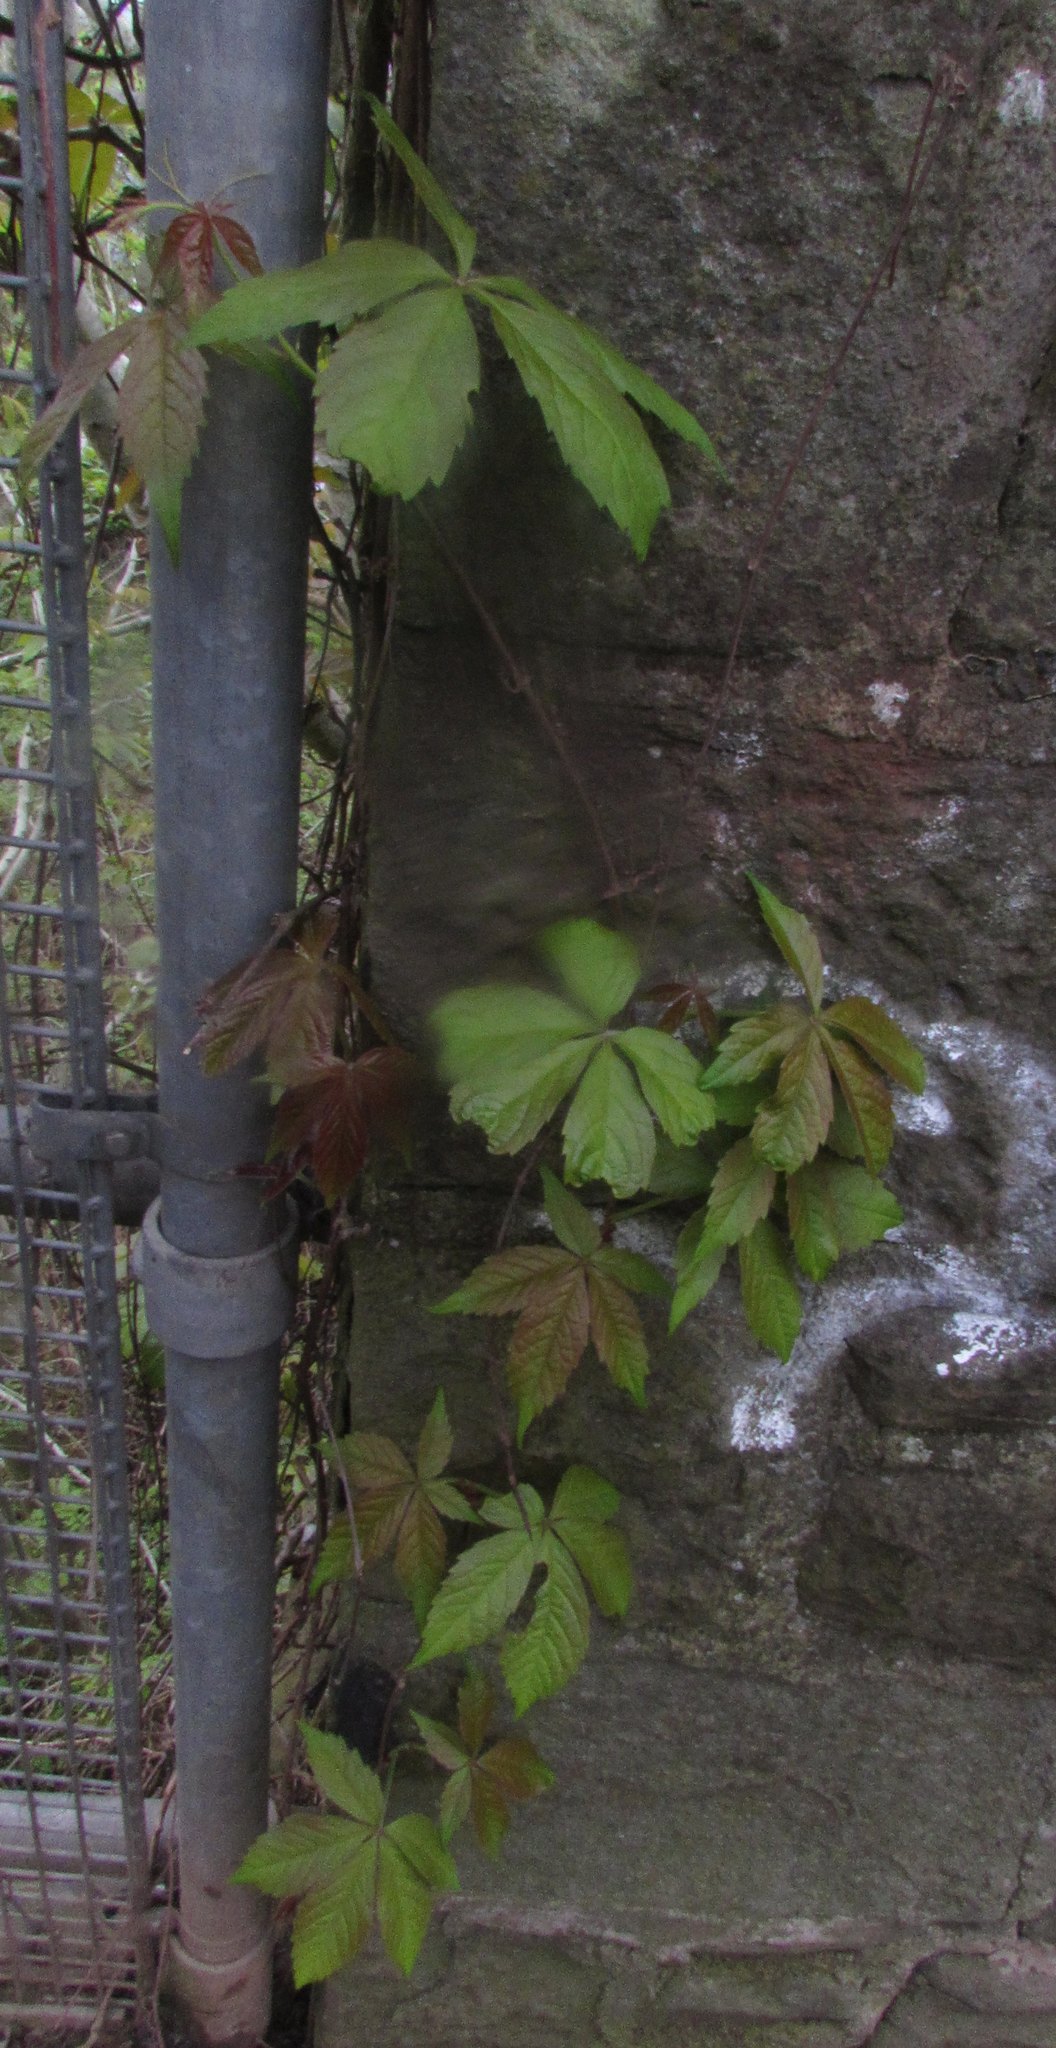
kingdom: Plantae
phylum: Tracheophyta
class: Magnoliopsida
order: Vitales
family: Vitaceae
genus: Parthenocissus
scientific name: Parthenocissus quinquefolia
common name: Virginia-creeper
